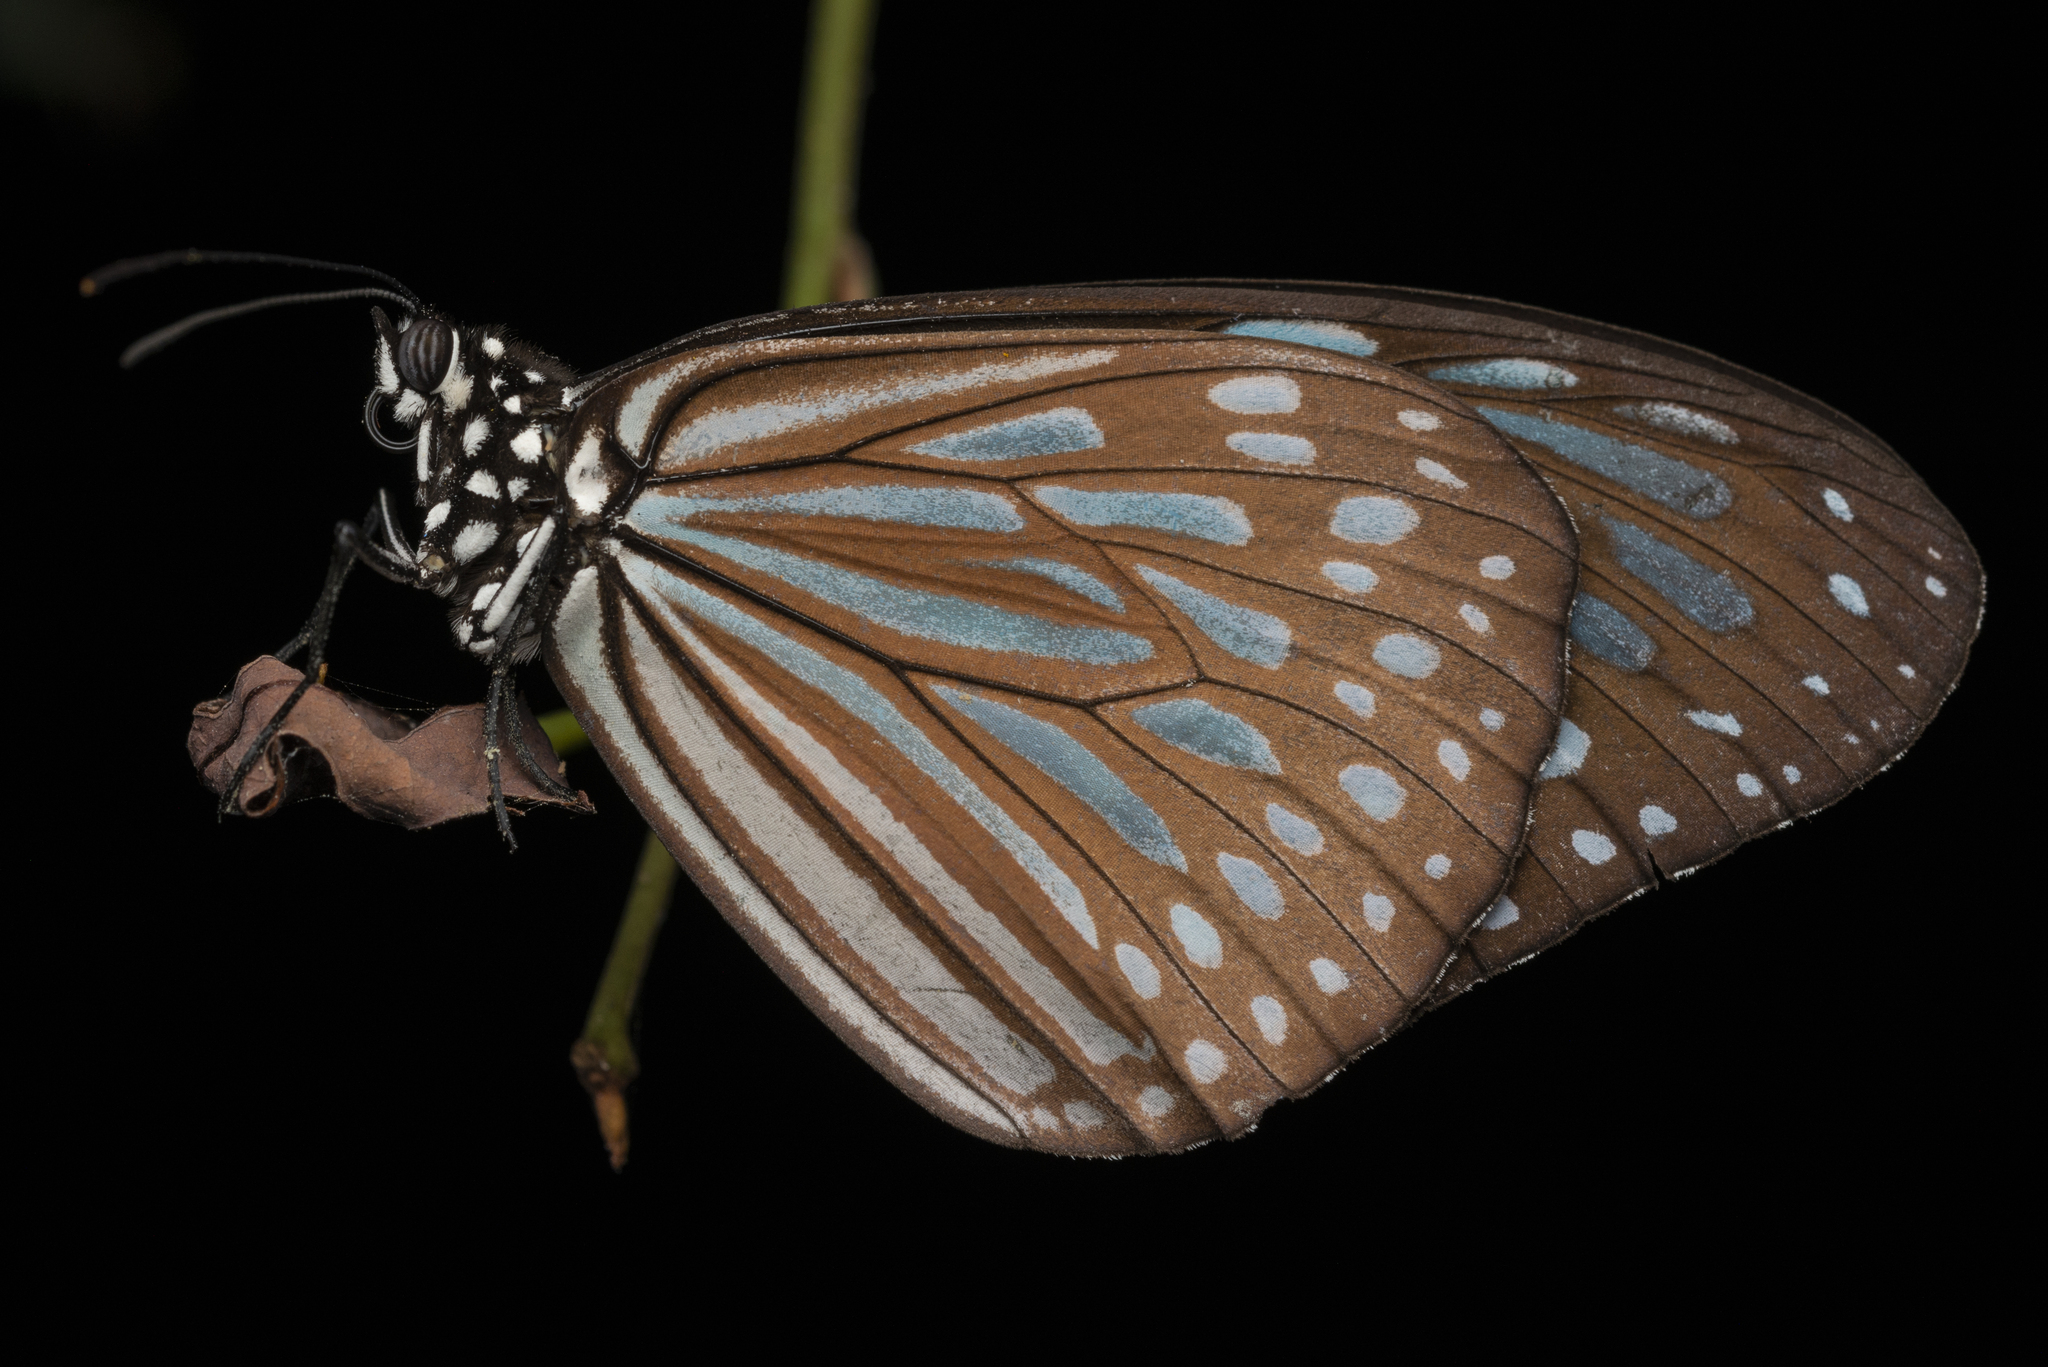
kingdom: Animalia
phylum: Arthropoda
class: Insecta
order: Lepidoptera
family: Nymphalidae
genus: Ideopsis
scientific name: Ideopsis similis
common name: Ceylon blue glassy tiger
